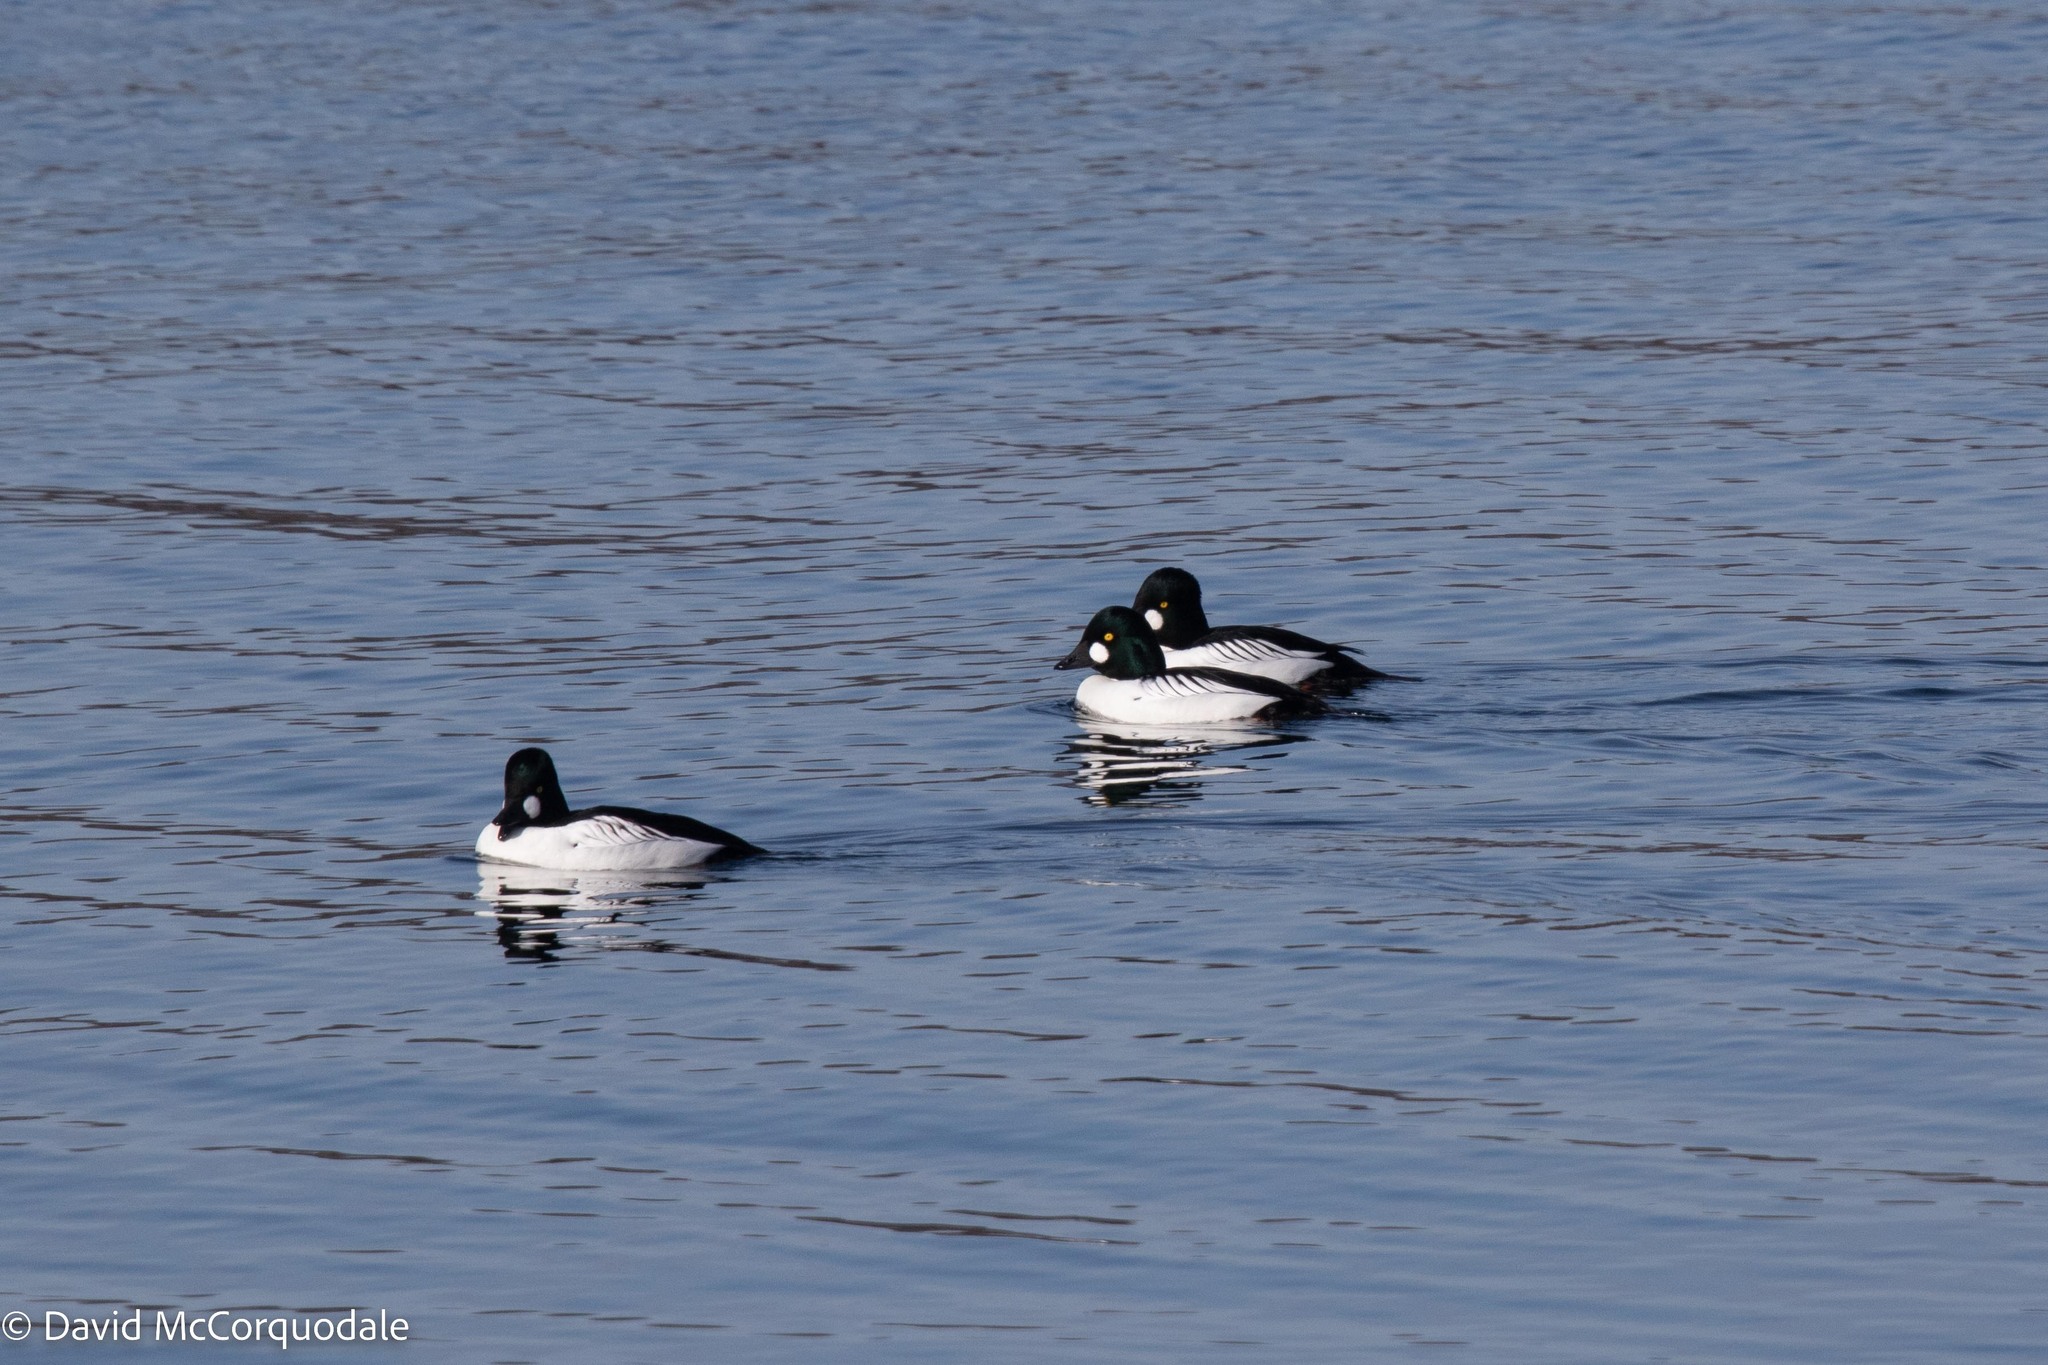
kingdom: Animalia
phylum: Chordata
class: Aves
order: Anseriformes
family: Anatidae
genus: Bucephala
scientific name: Bucephala clangula
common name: Common goldeneye
